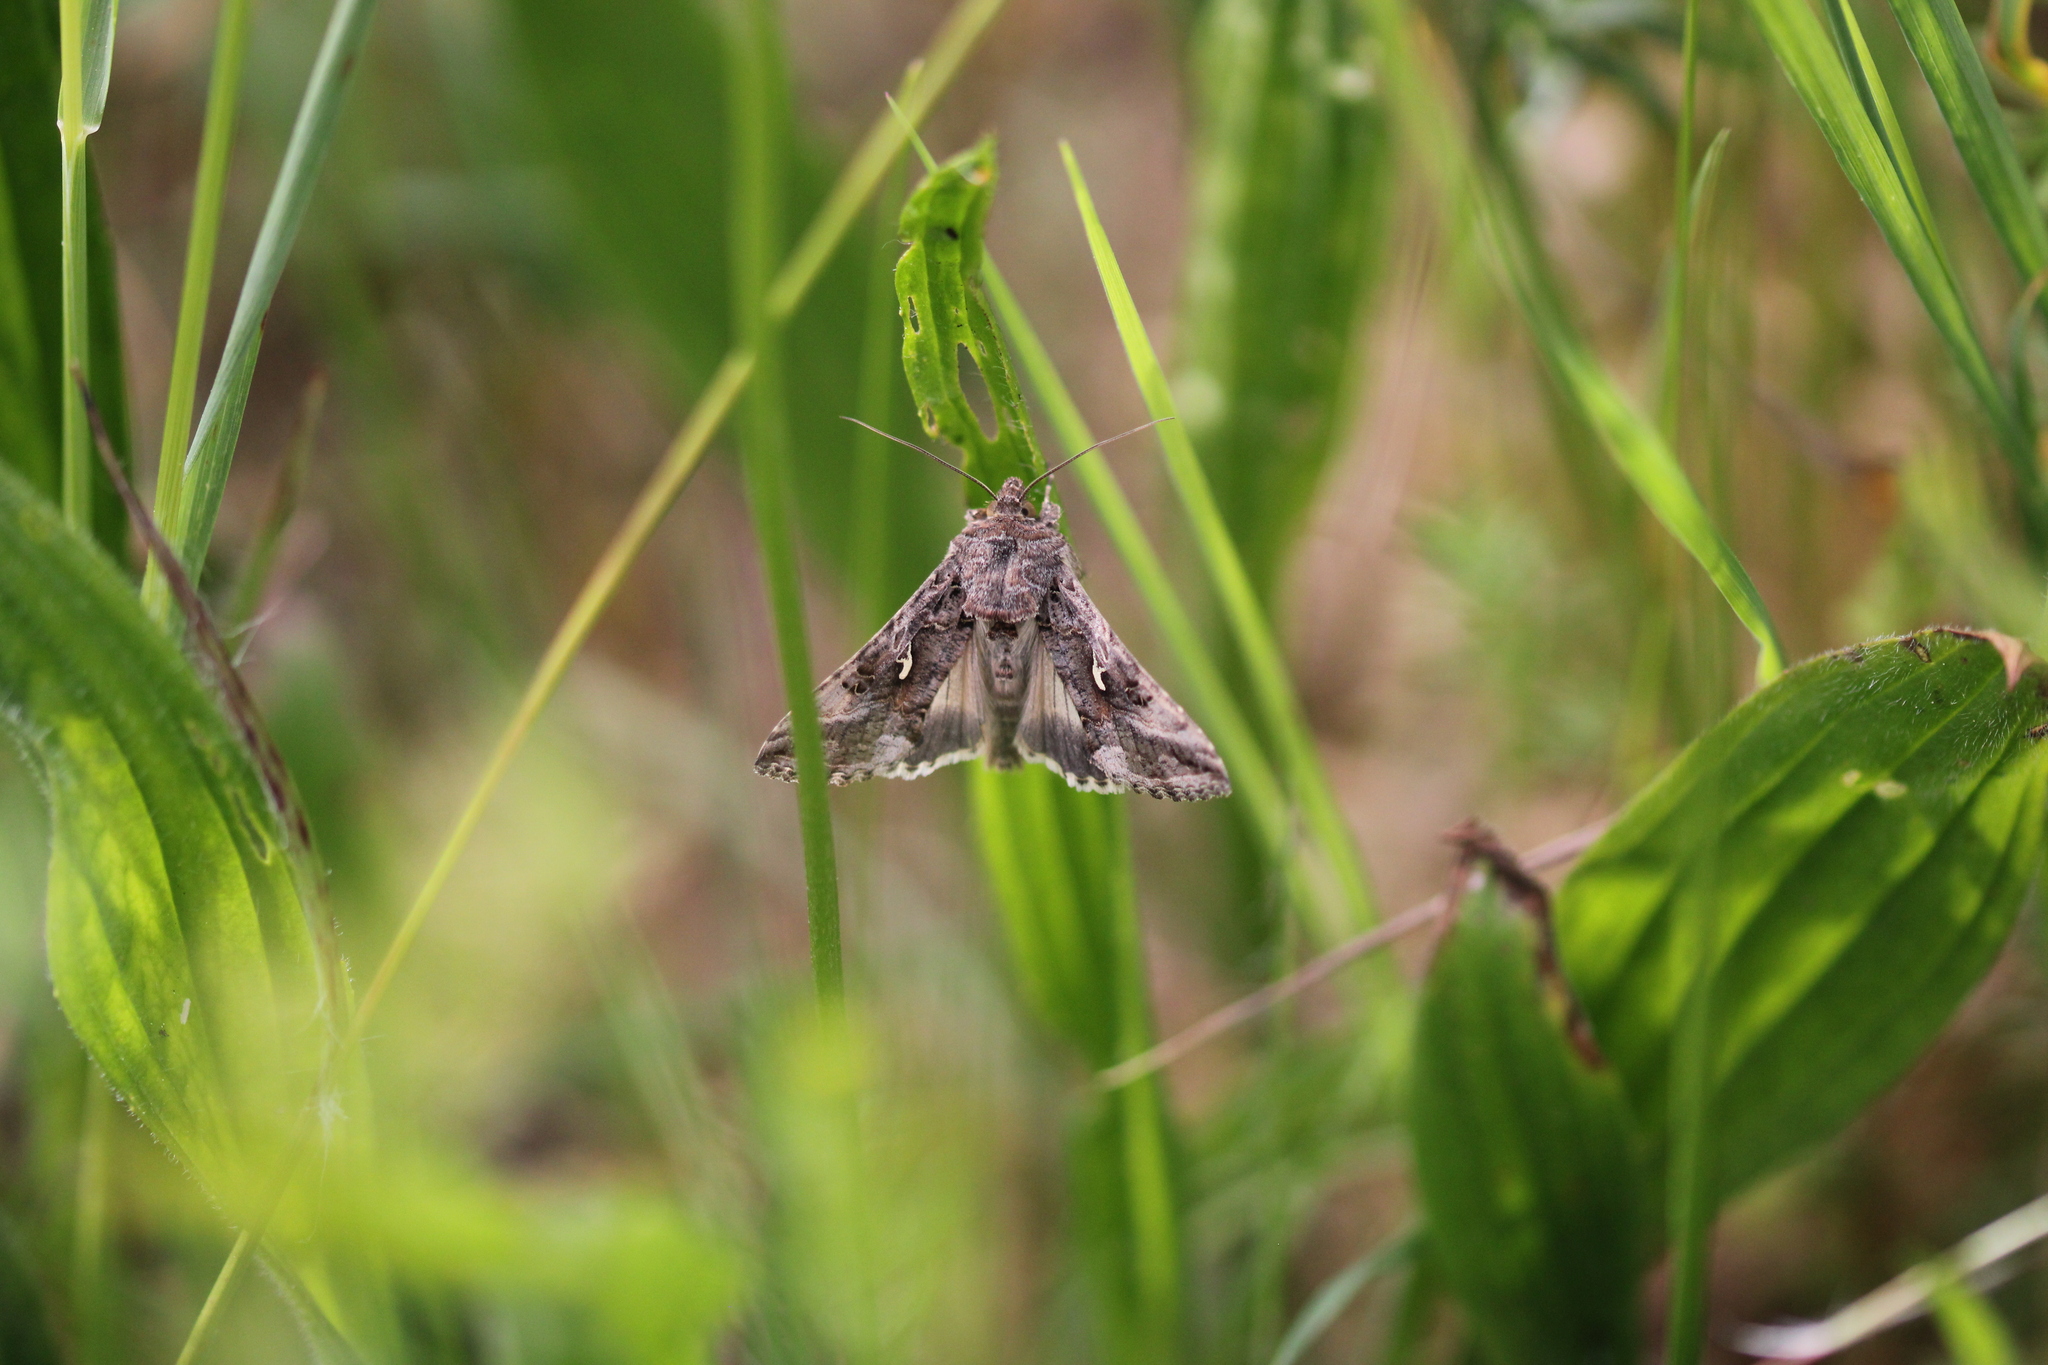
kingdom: Animalia
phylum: Arthropoda
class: Insecta
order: Lepidoptera
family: Noctuidae
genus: Autographa
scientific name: Autographa gamma
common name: Silver y
